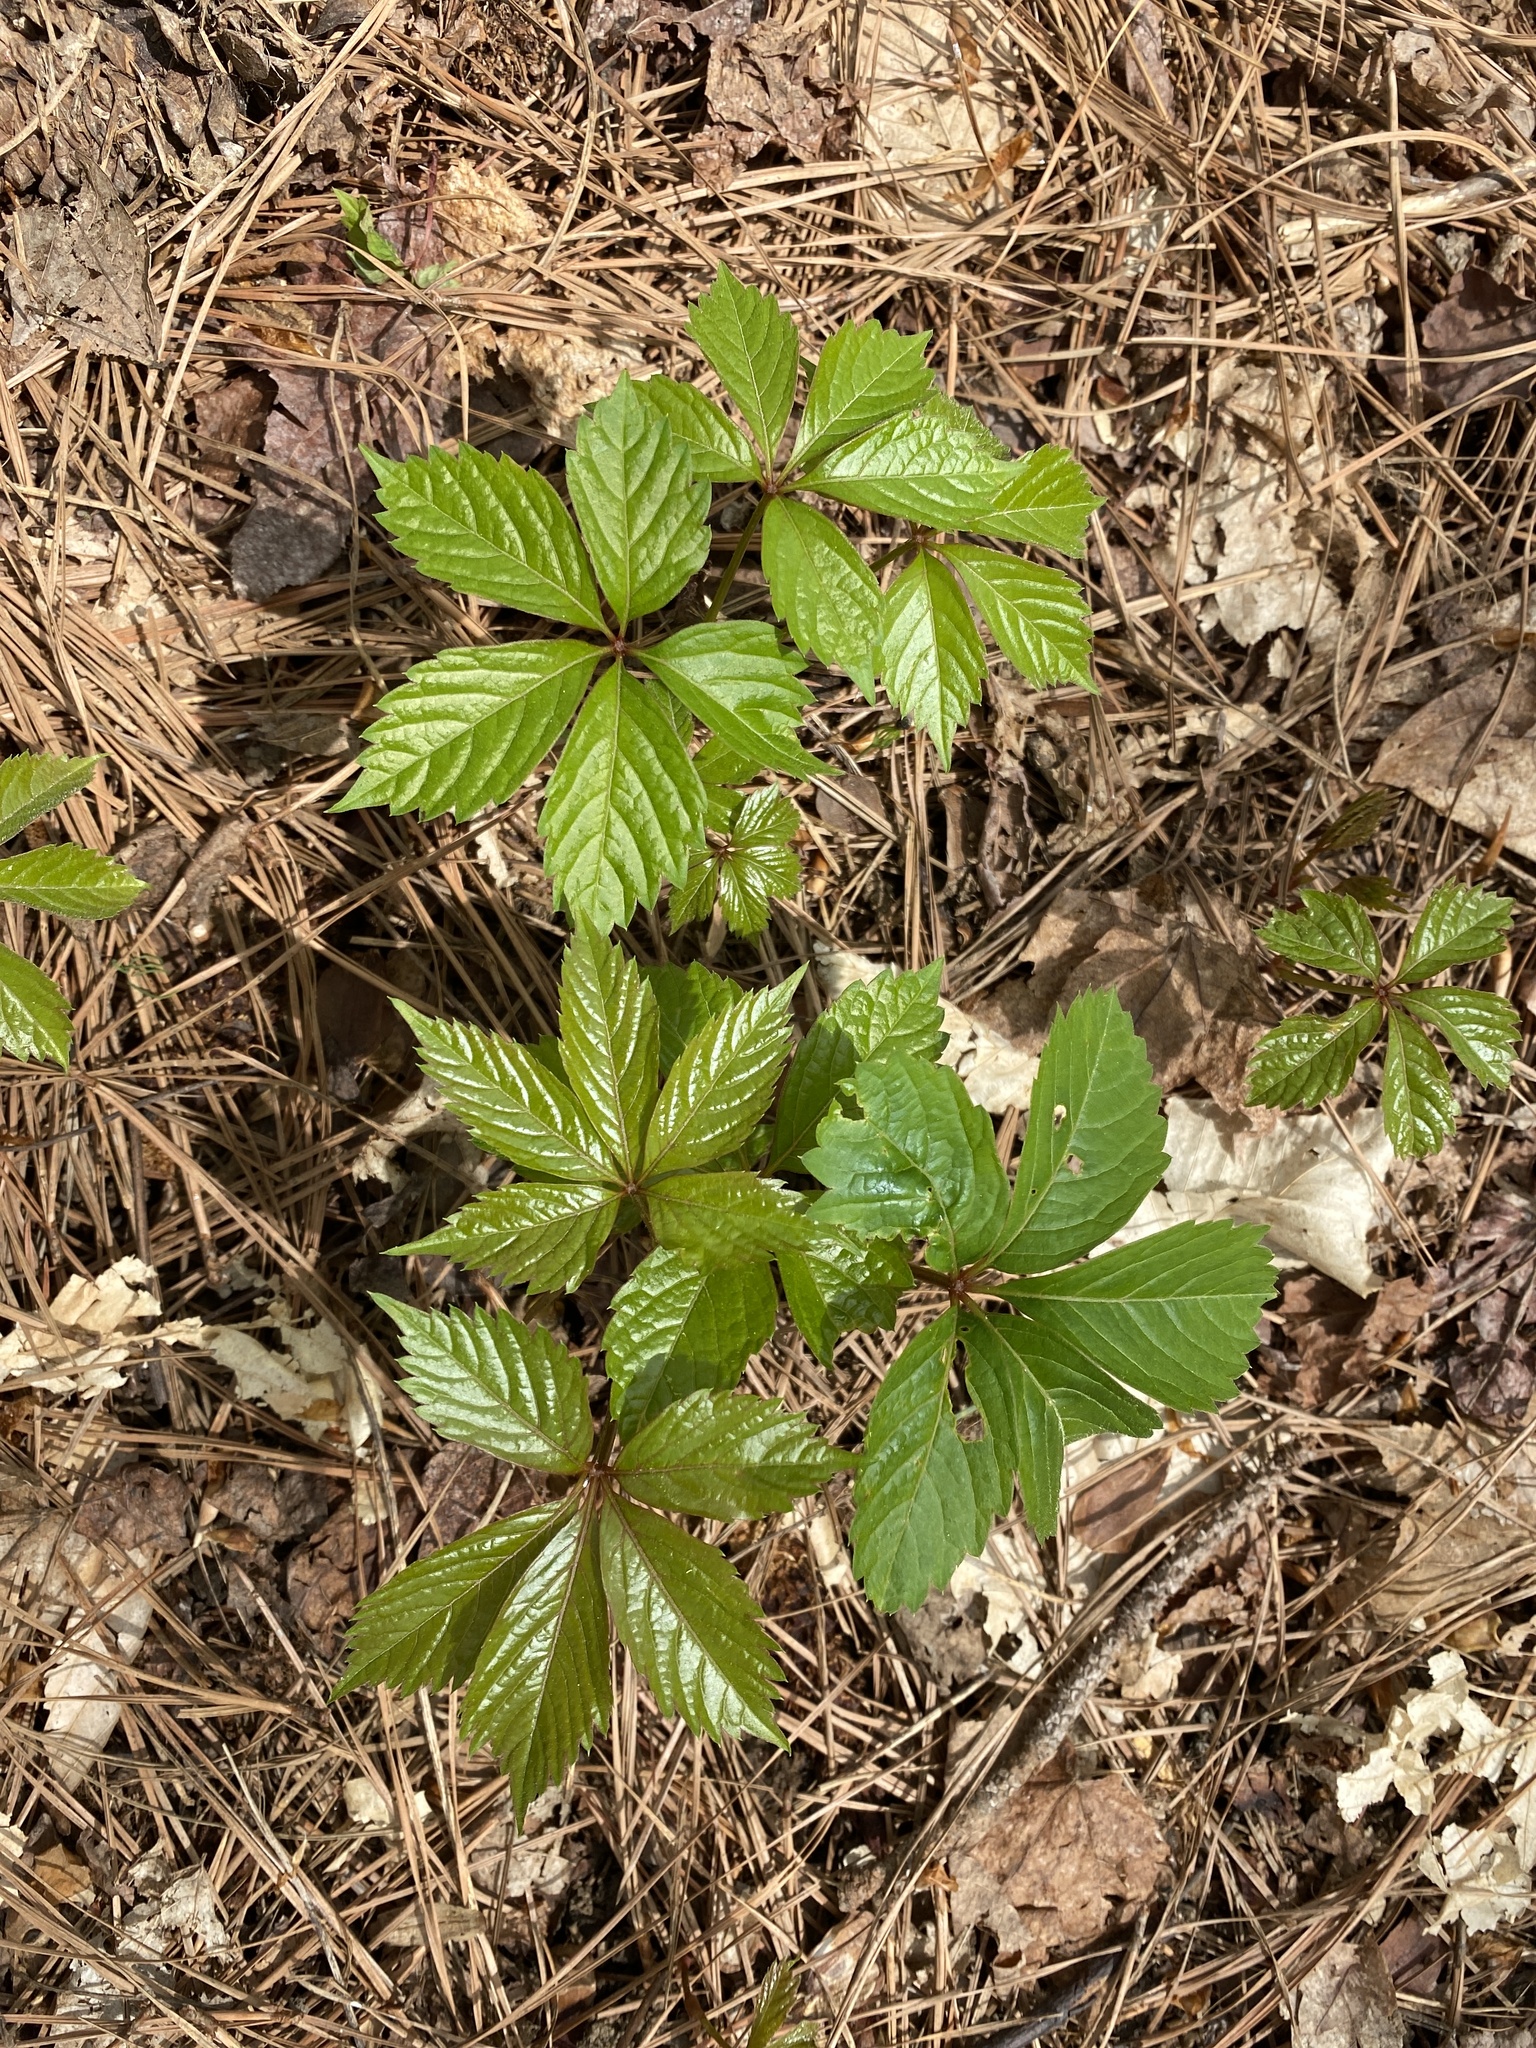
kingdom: Plantae
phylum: Tracheophyta
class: Magnoliopsida
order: Vitales
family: Vitaceae
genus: Parthenocissus
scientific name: Parthenocissus quinquefolia
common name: Virginia-creeper
